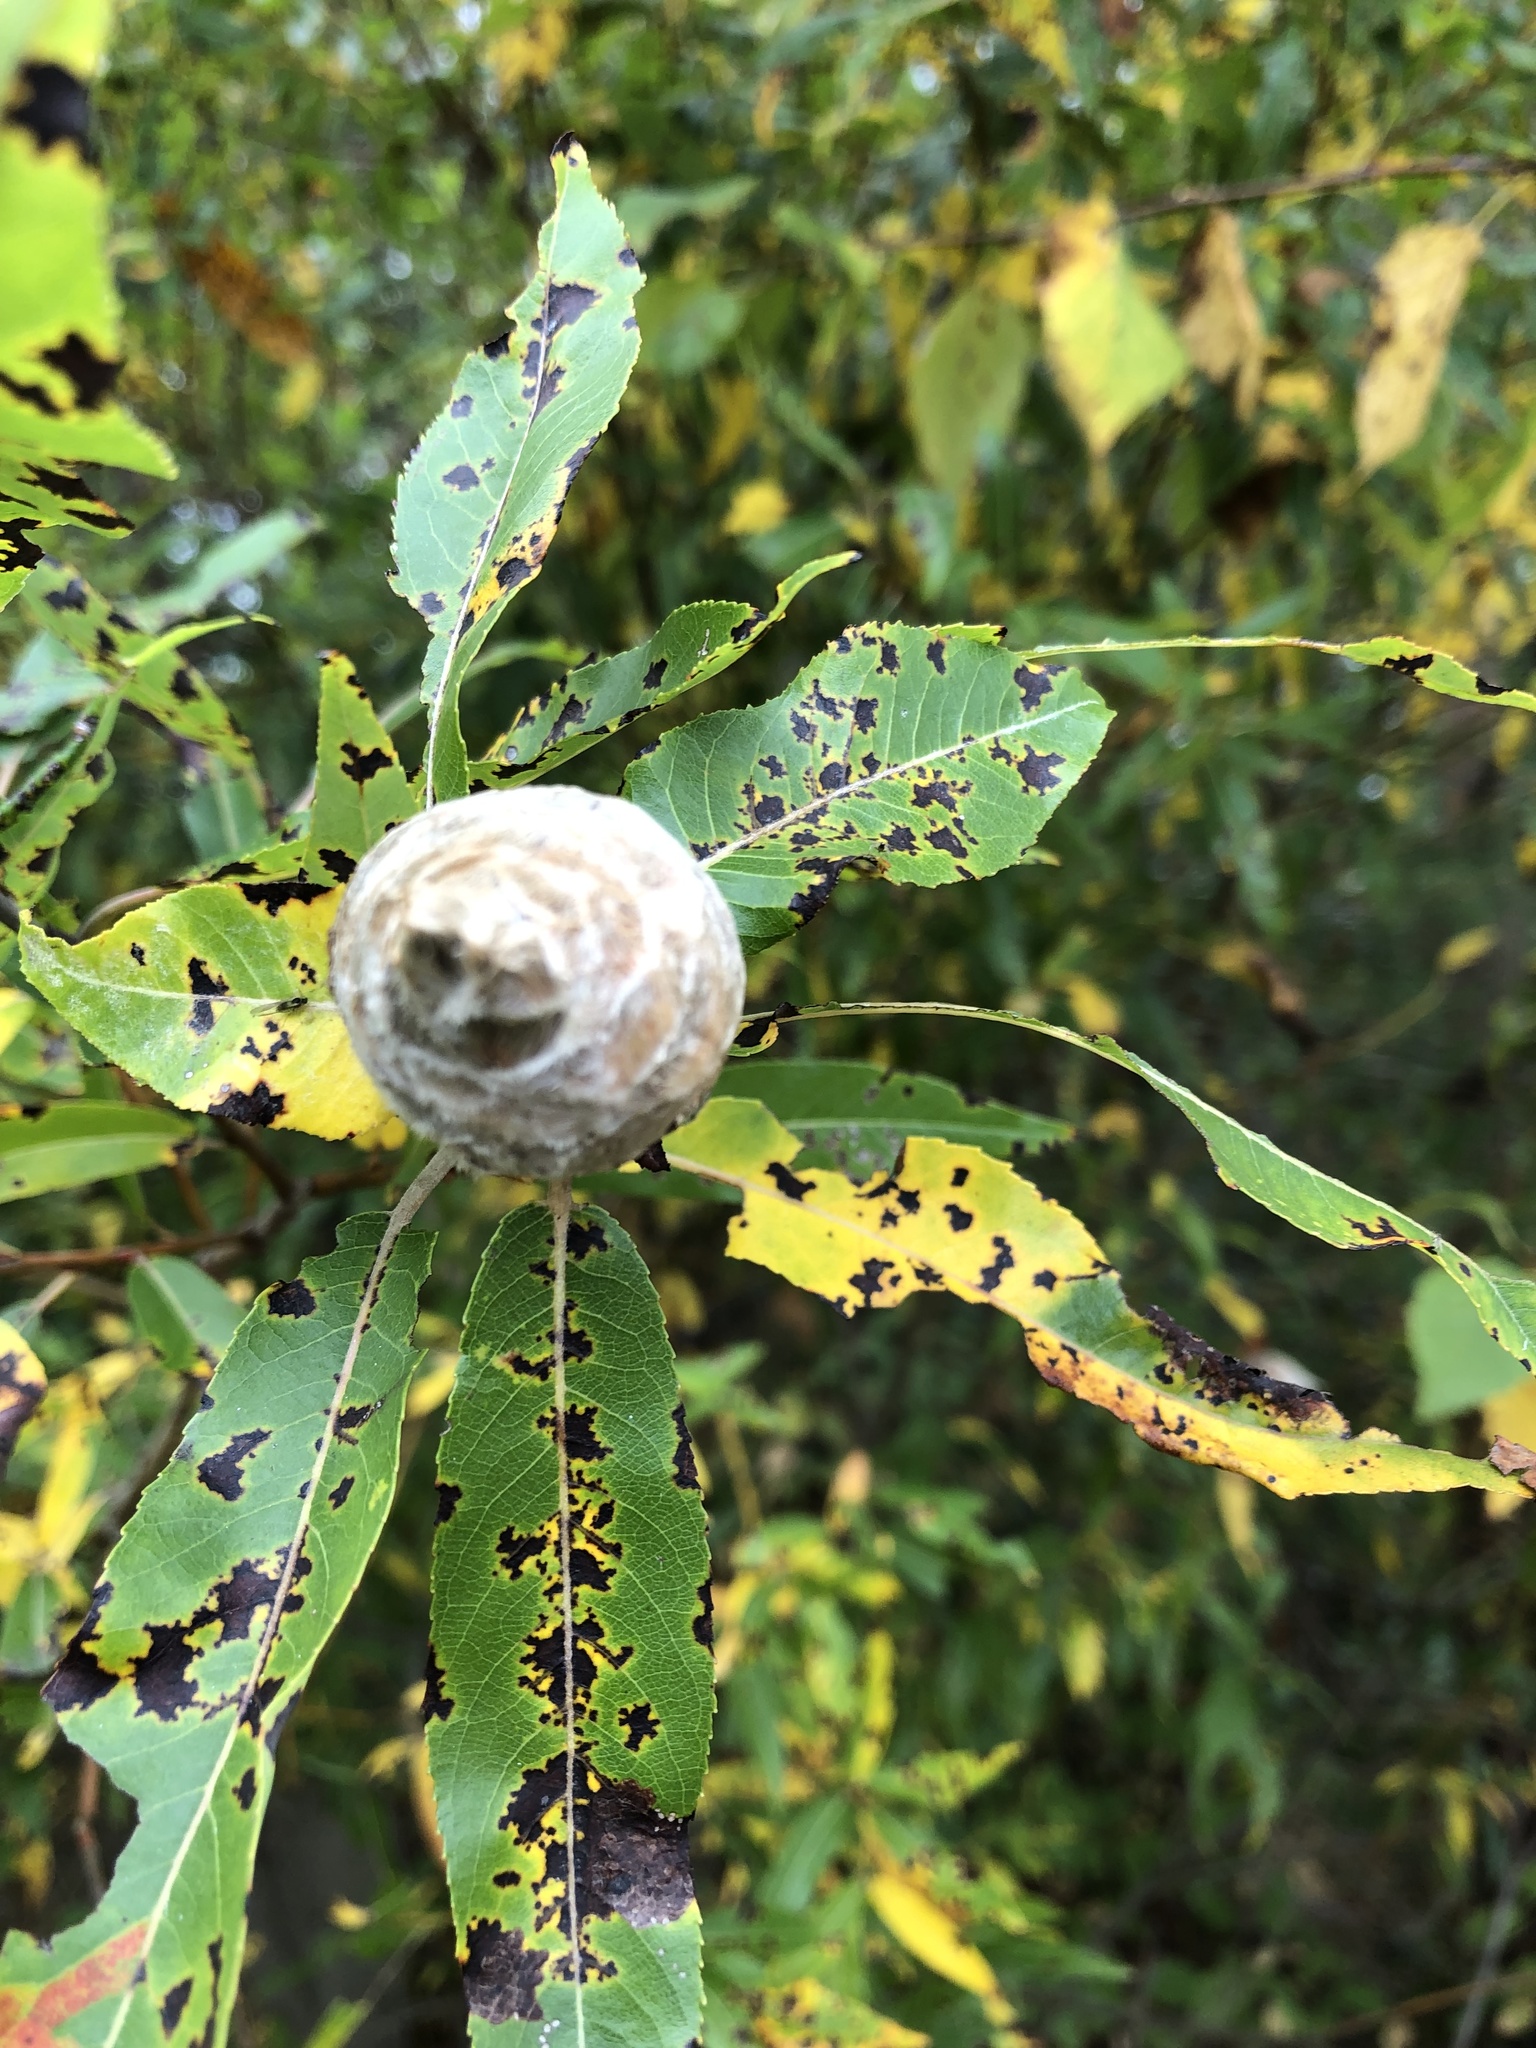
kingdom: Animalia
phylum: Arthropoda
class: Insecta
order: Diptera
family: Cecidomyiidae
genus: Rabdophaga
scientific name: Rabdophaga strobiloides
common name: Willow pinecone gall midge
